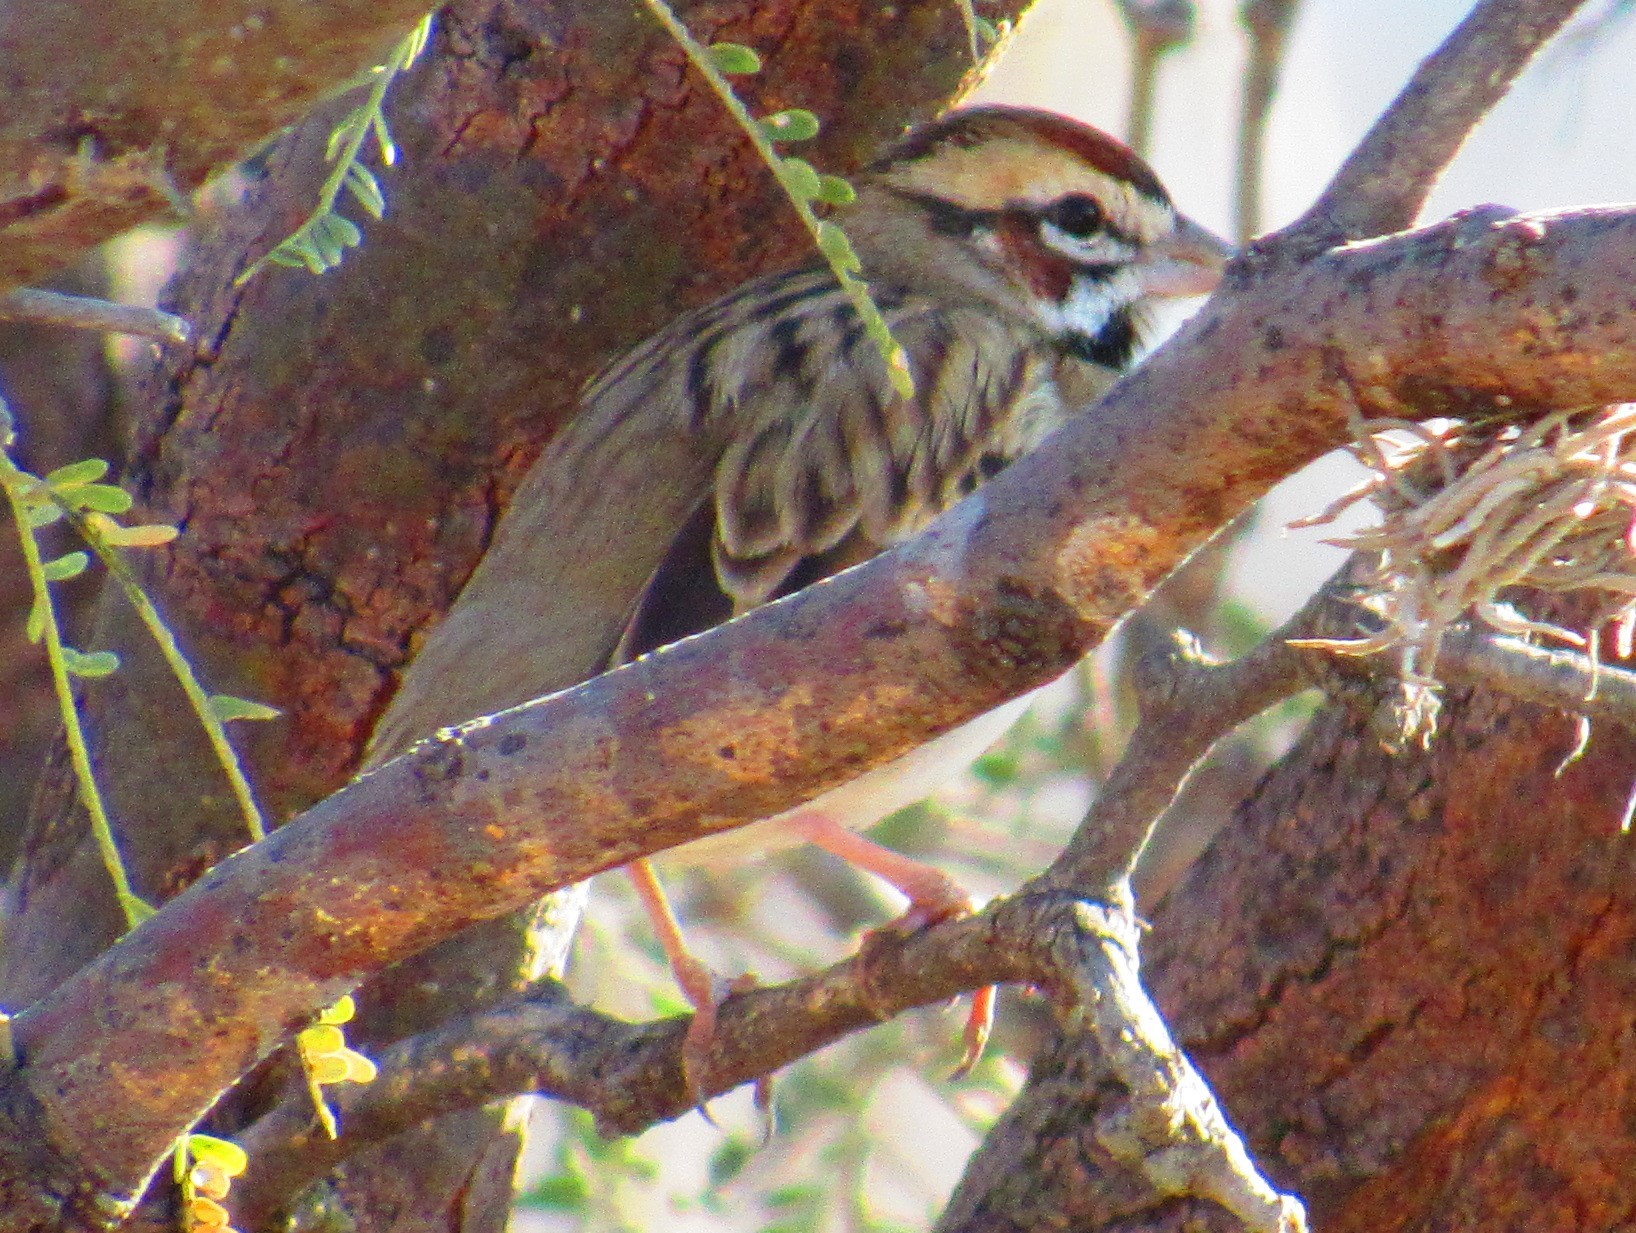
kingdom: Animalia
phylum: Chordata
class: Aves
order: Passeriformes
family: Passerellidae
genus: Chondestes
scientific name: Chondestes grammacus
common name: Lark sparrow
